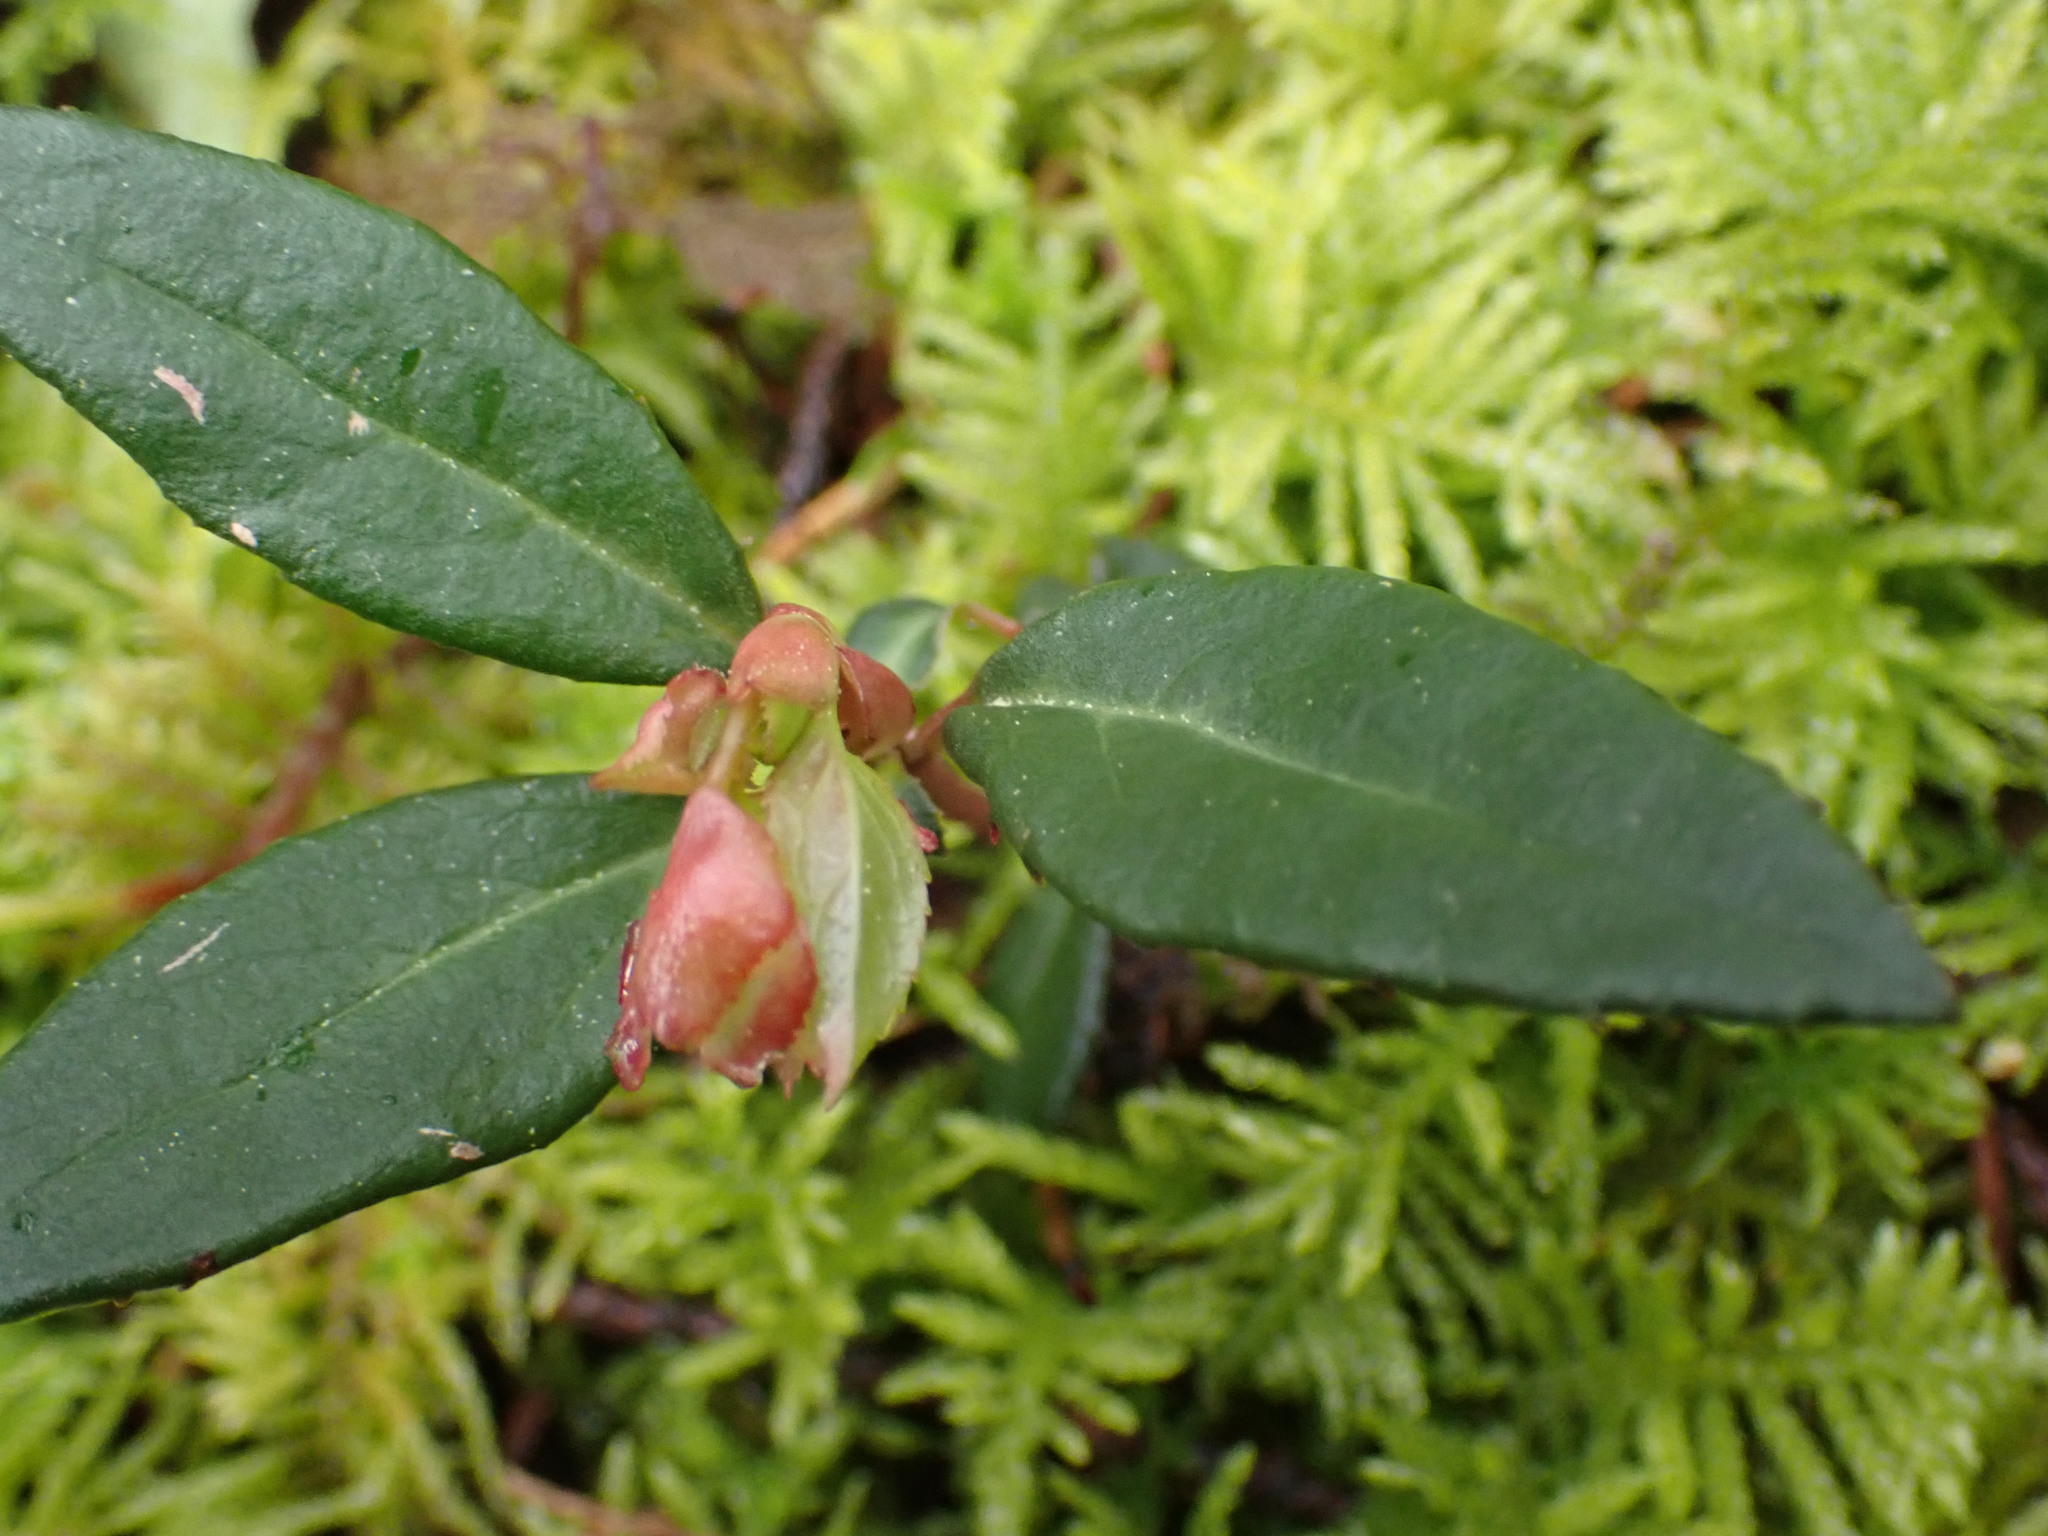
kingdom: Plantae
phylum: Tracheophyta
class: Magnoliopsida
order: Ericales
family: Ericaceae
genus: Chimaphila
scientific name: Chimaphila menziesii
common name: Menzies' pipsissewa
